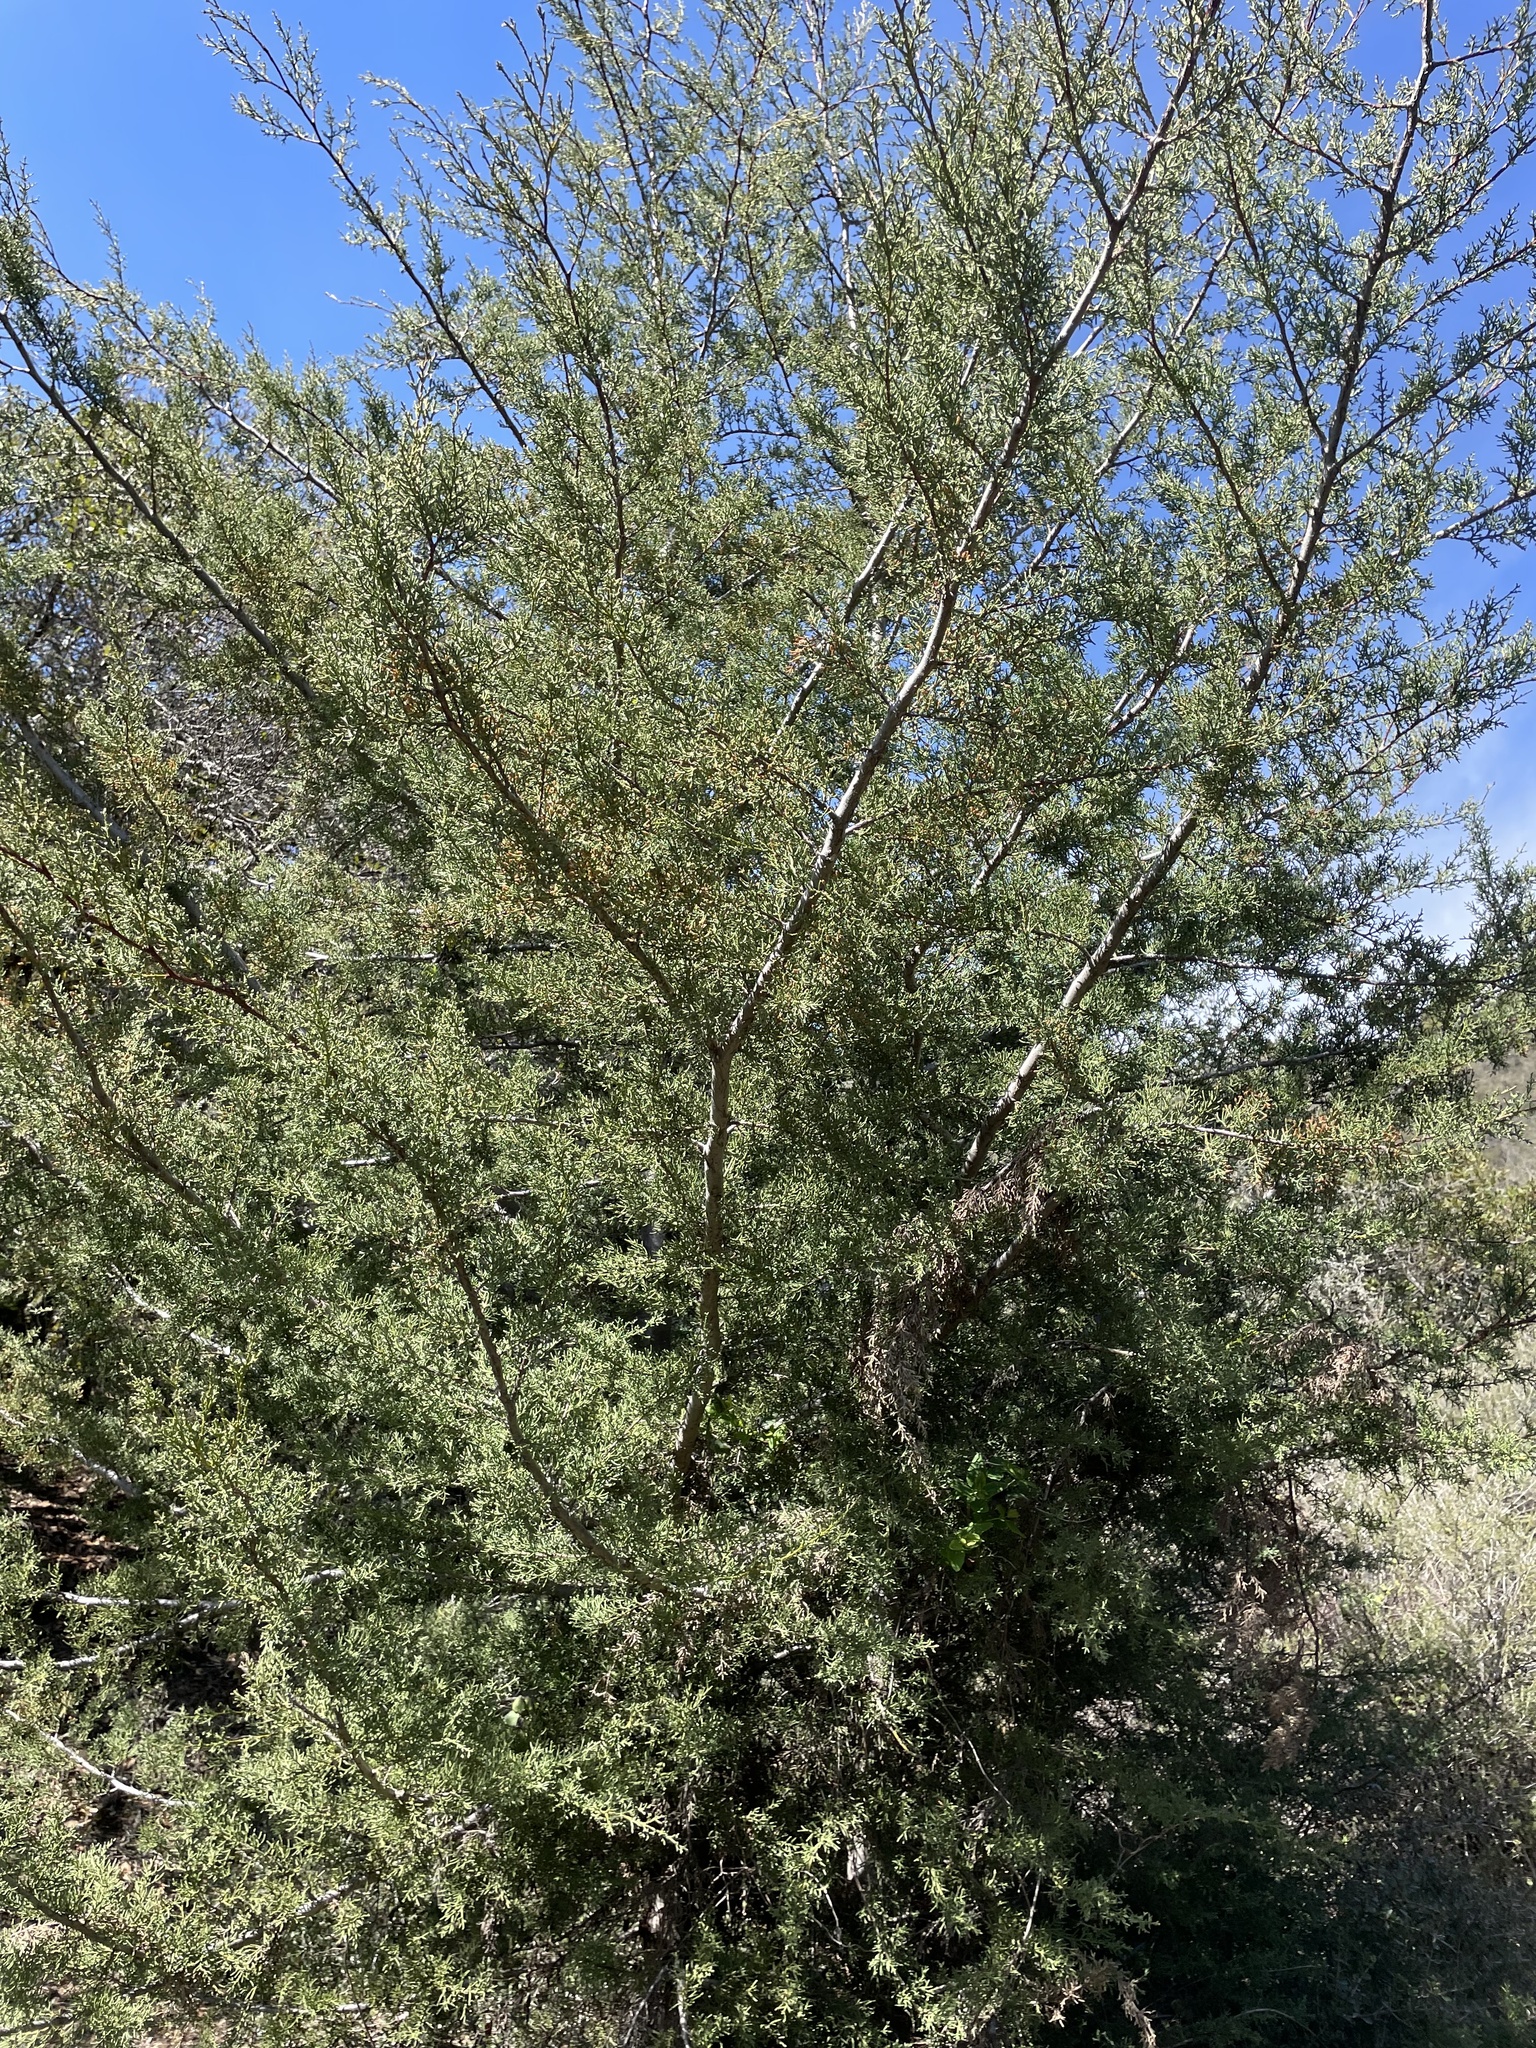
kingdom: Plantae
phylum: Tracheophyta
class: Pinopsida
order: Pinales
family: Cupressaceae
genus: Cupressus
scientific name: Cupressus sargentii
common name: Sargent cypress
